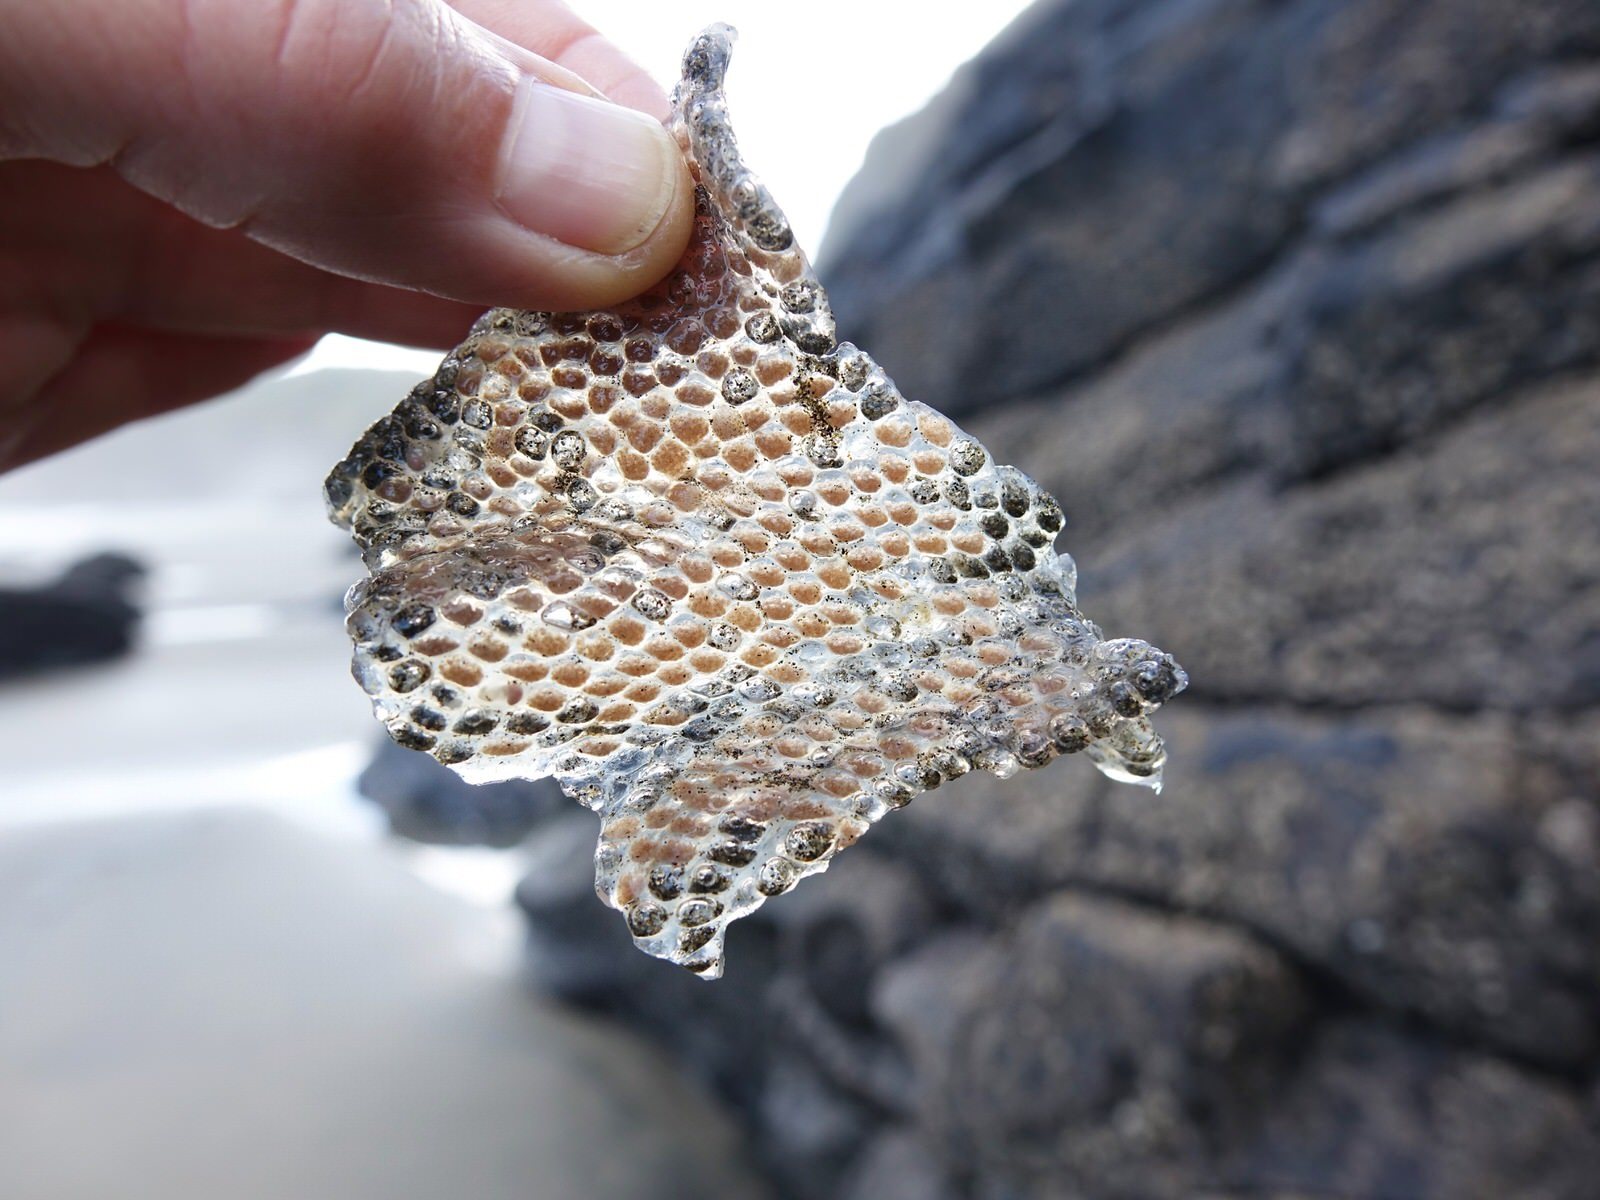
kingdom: Animalia
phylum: Mollusca
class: Gastropoda
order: Littorinimorpha
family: Tonnidae
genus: Tonna
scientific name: Tonna tankervillii
